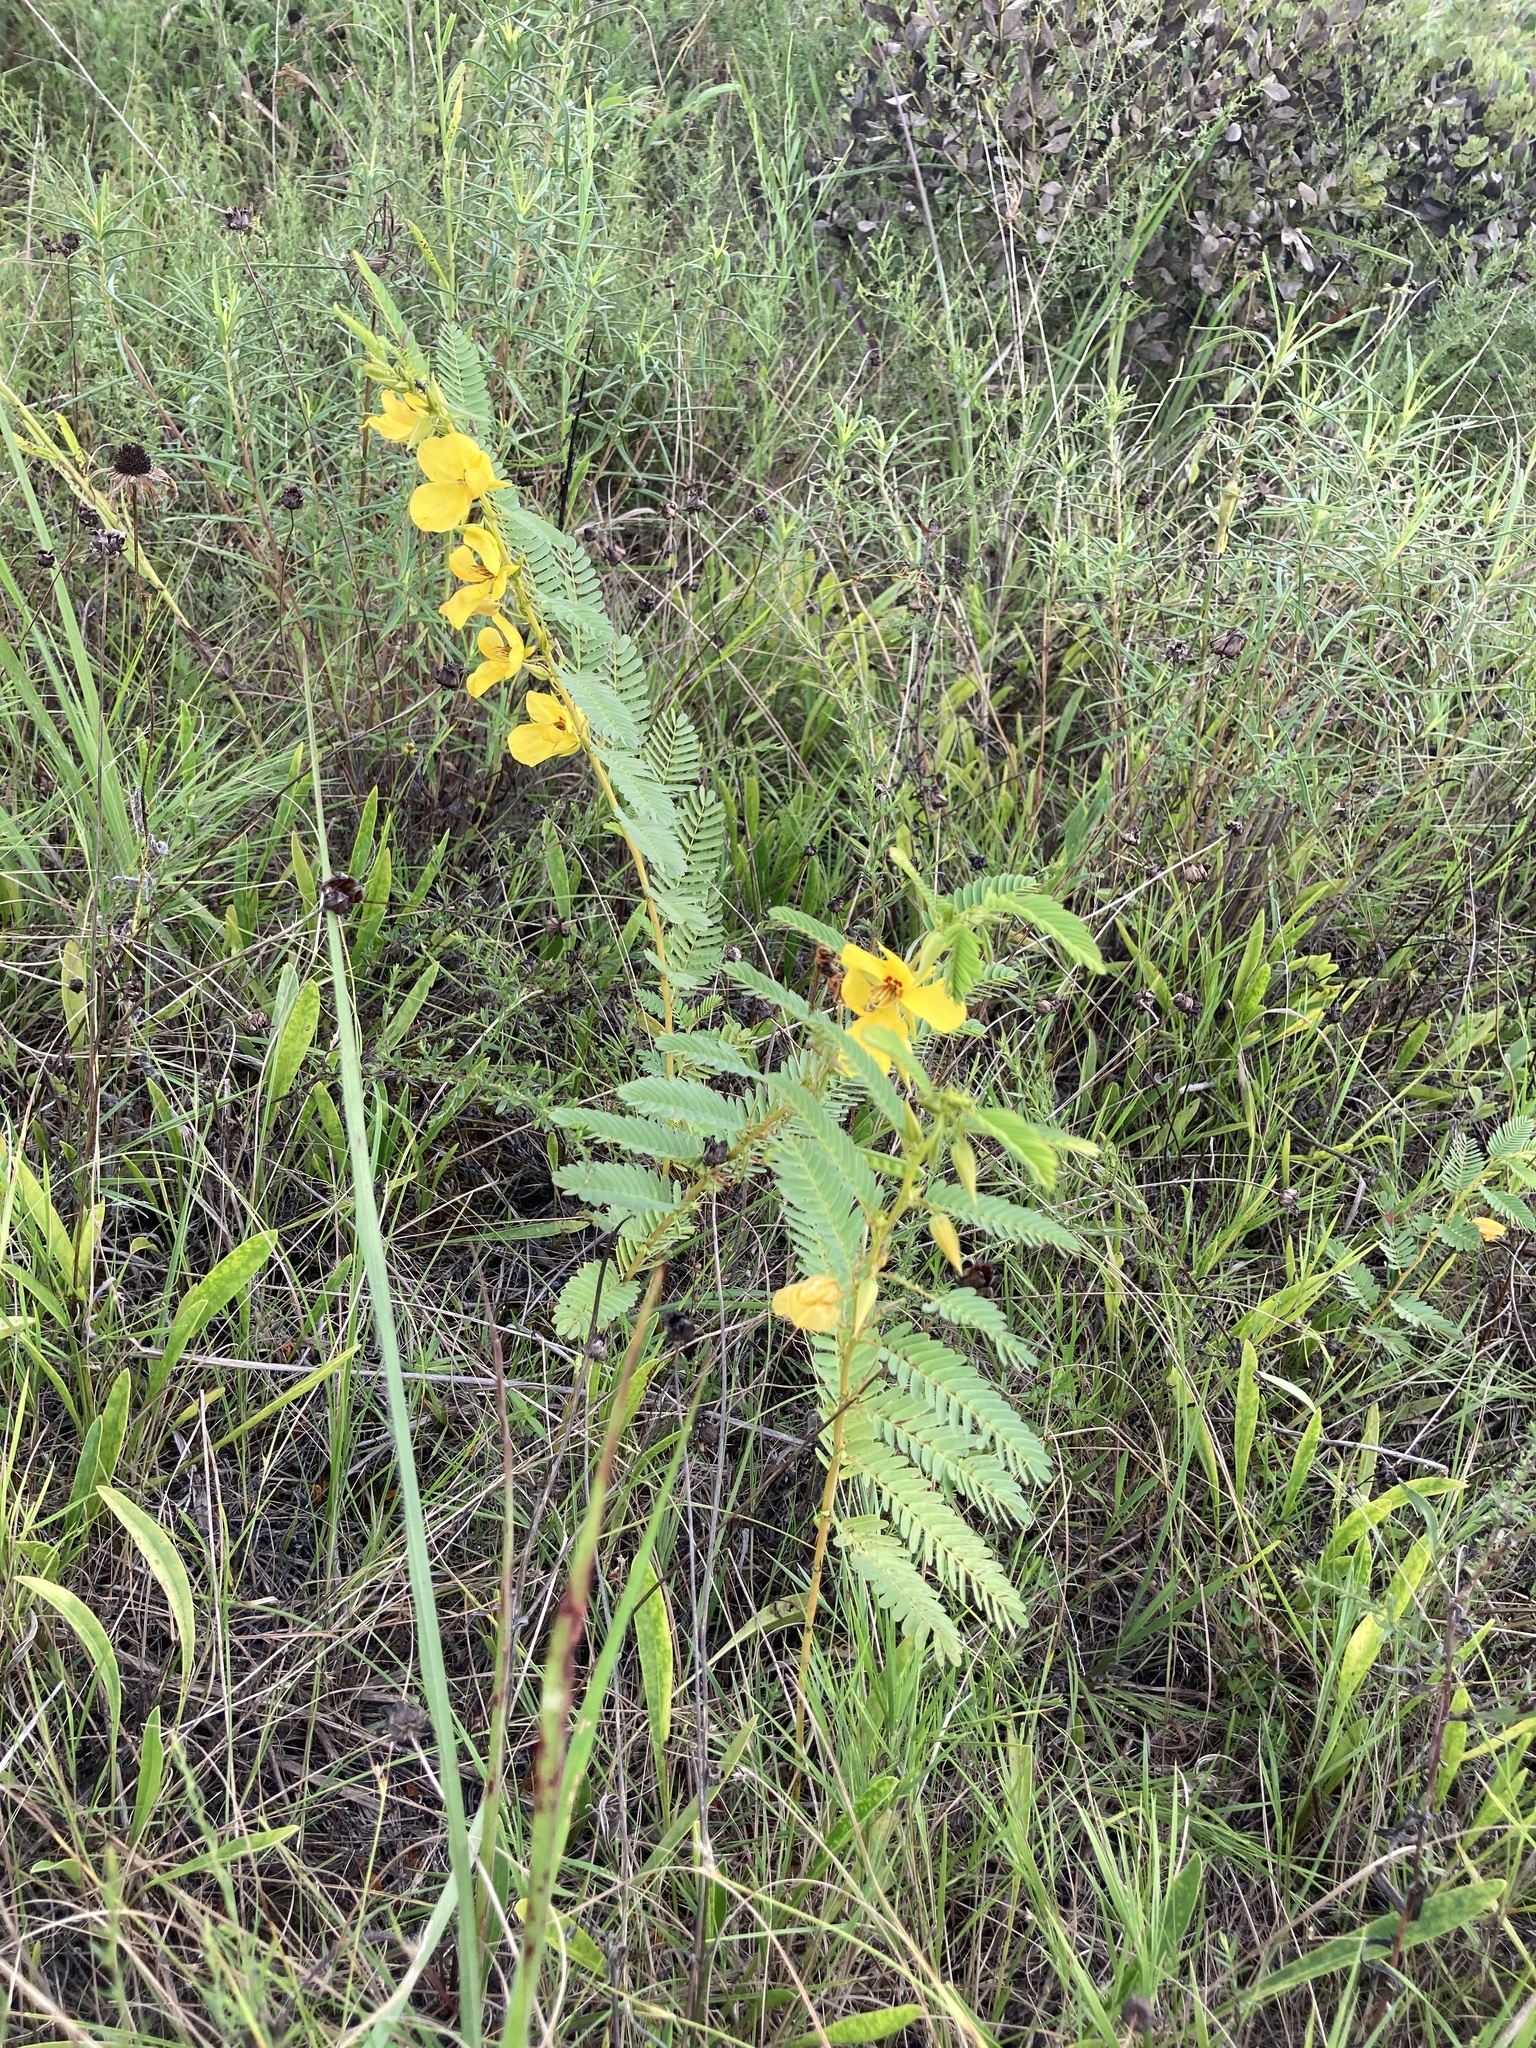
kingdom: Plantae
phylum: Tracheophyta
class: Magnoliopsida
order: Fabales
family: Fabaceae
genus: Chamaecrista
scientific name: Chamaecrista fasciculata
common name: Golden cassia
